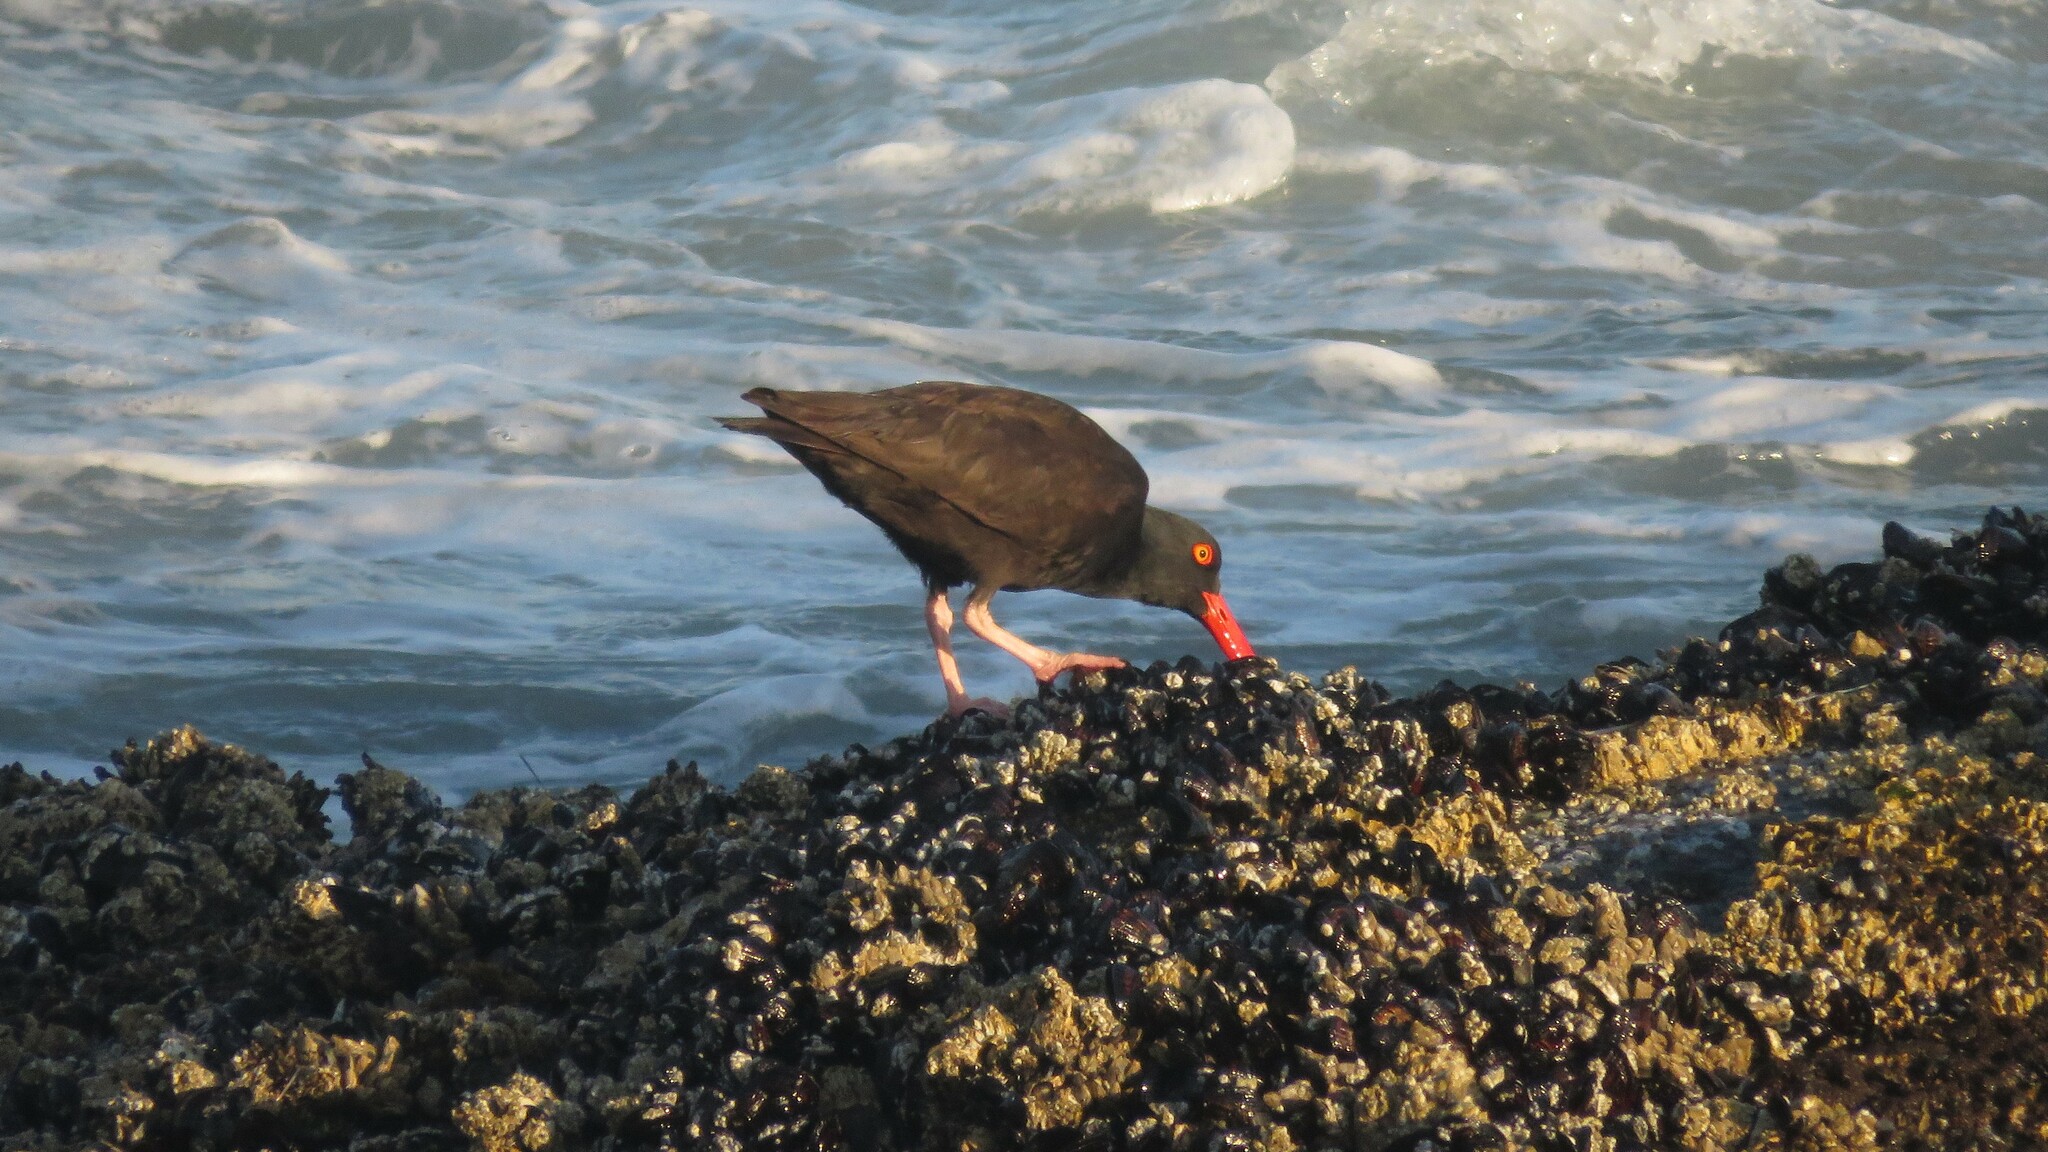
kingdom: Animalia
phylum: Chordata
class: Aves
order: Charadriiformes
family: Haematopodidae
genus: Haematopus
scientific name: Haematopus bachmani
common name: Black oystercatcher
